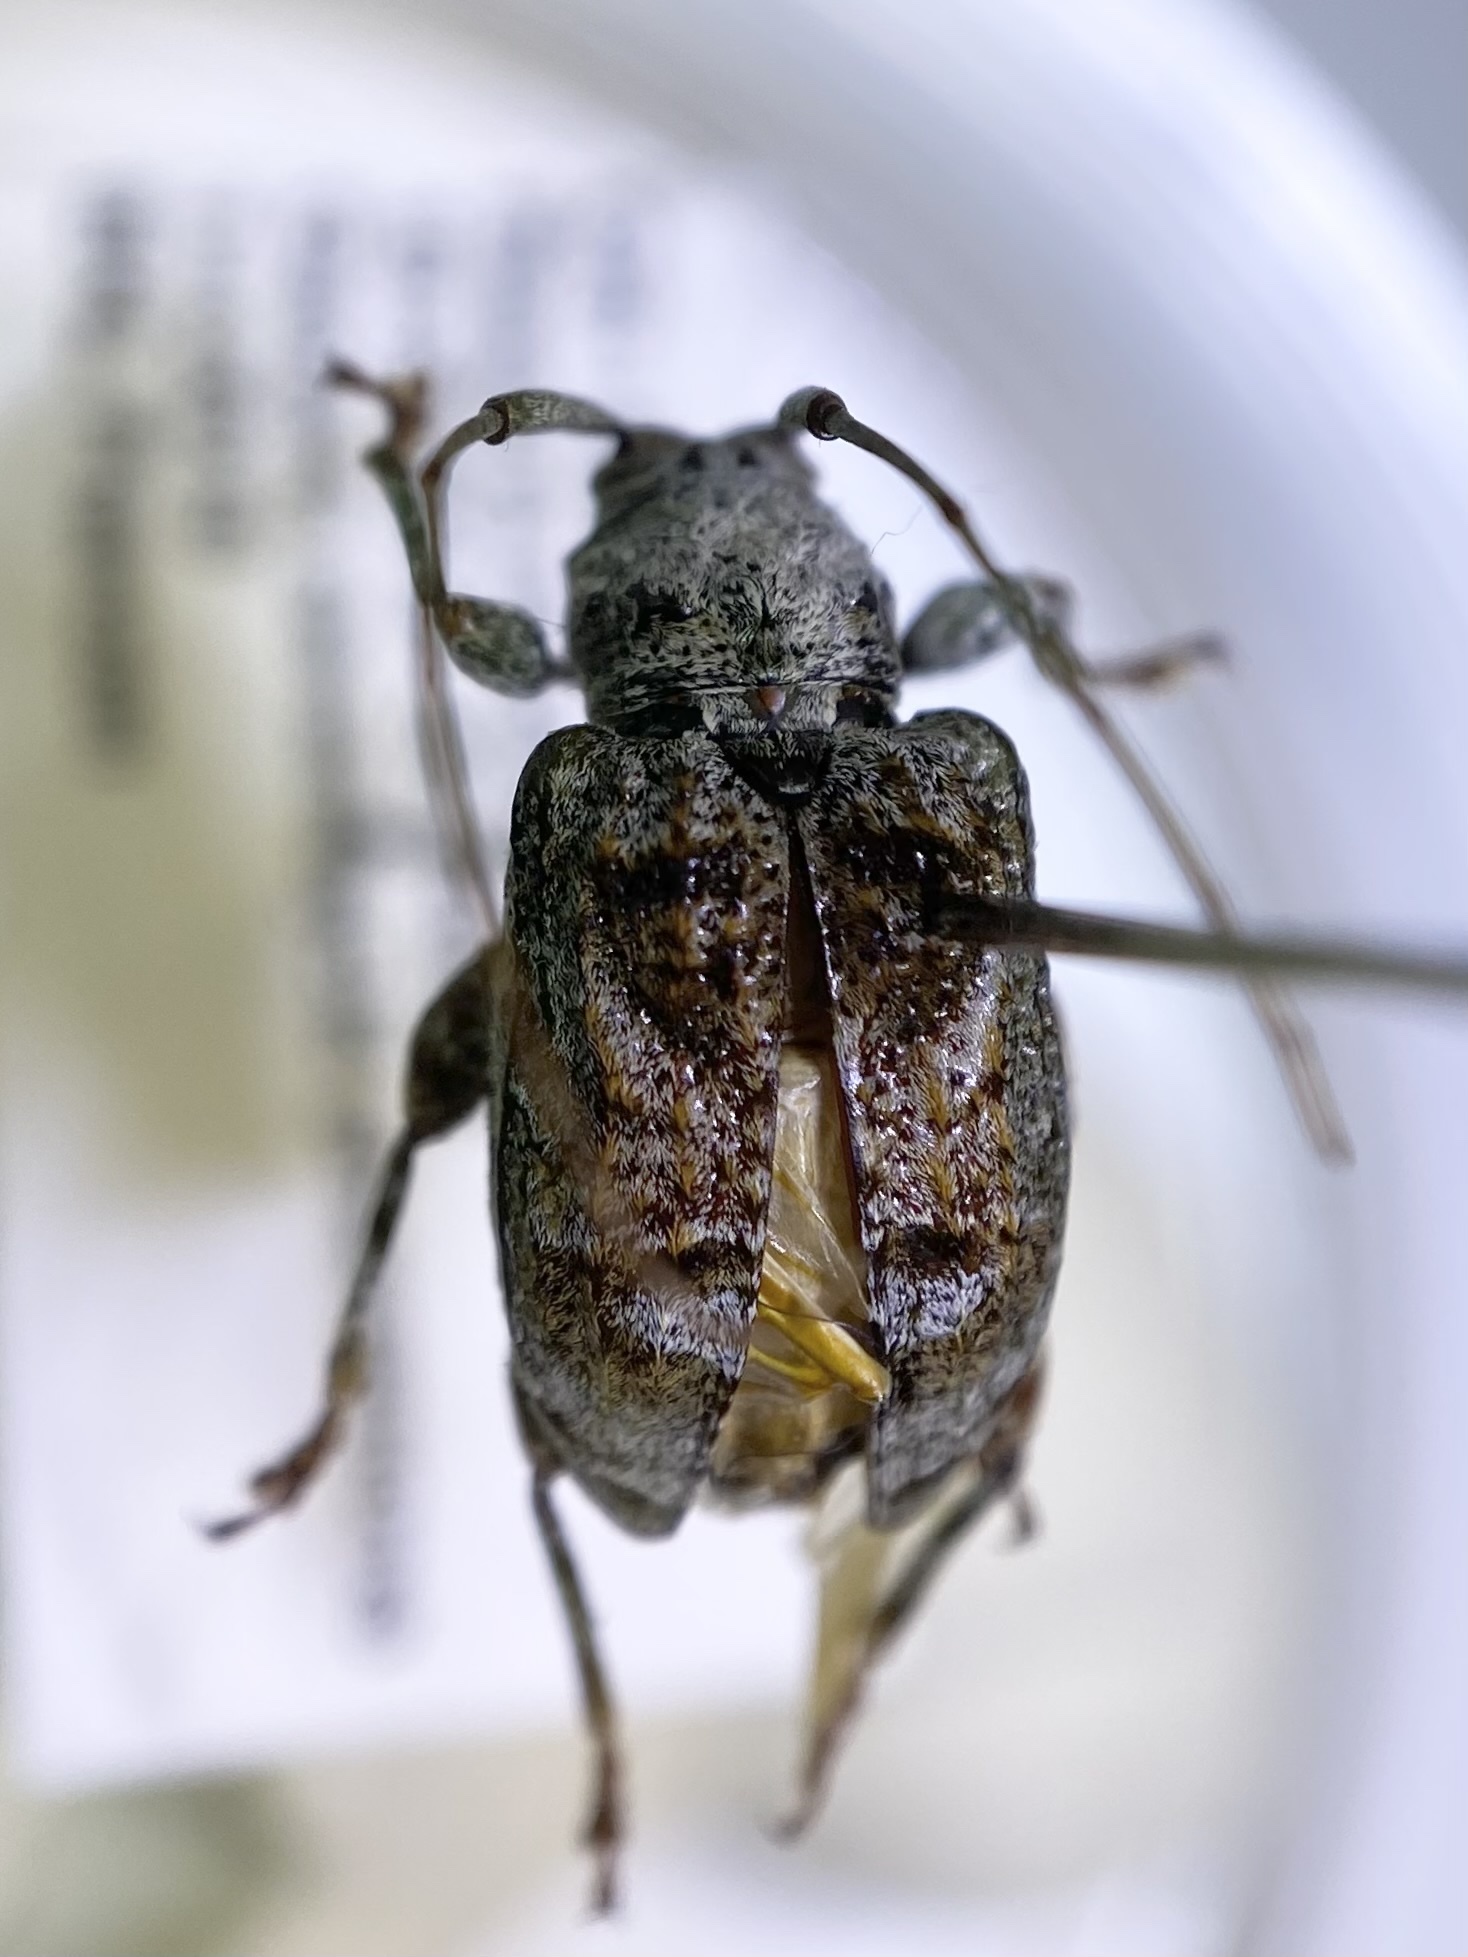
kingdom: Animalia
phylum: Arthropoda
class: Insecta
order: Coleoptera
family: Cerambycidae
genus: Leptostylus
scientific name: Leptostylus gibbulosus
